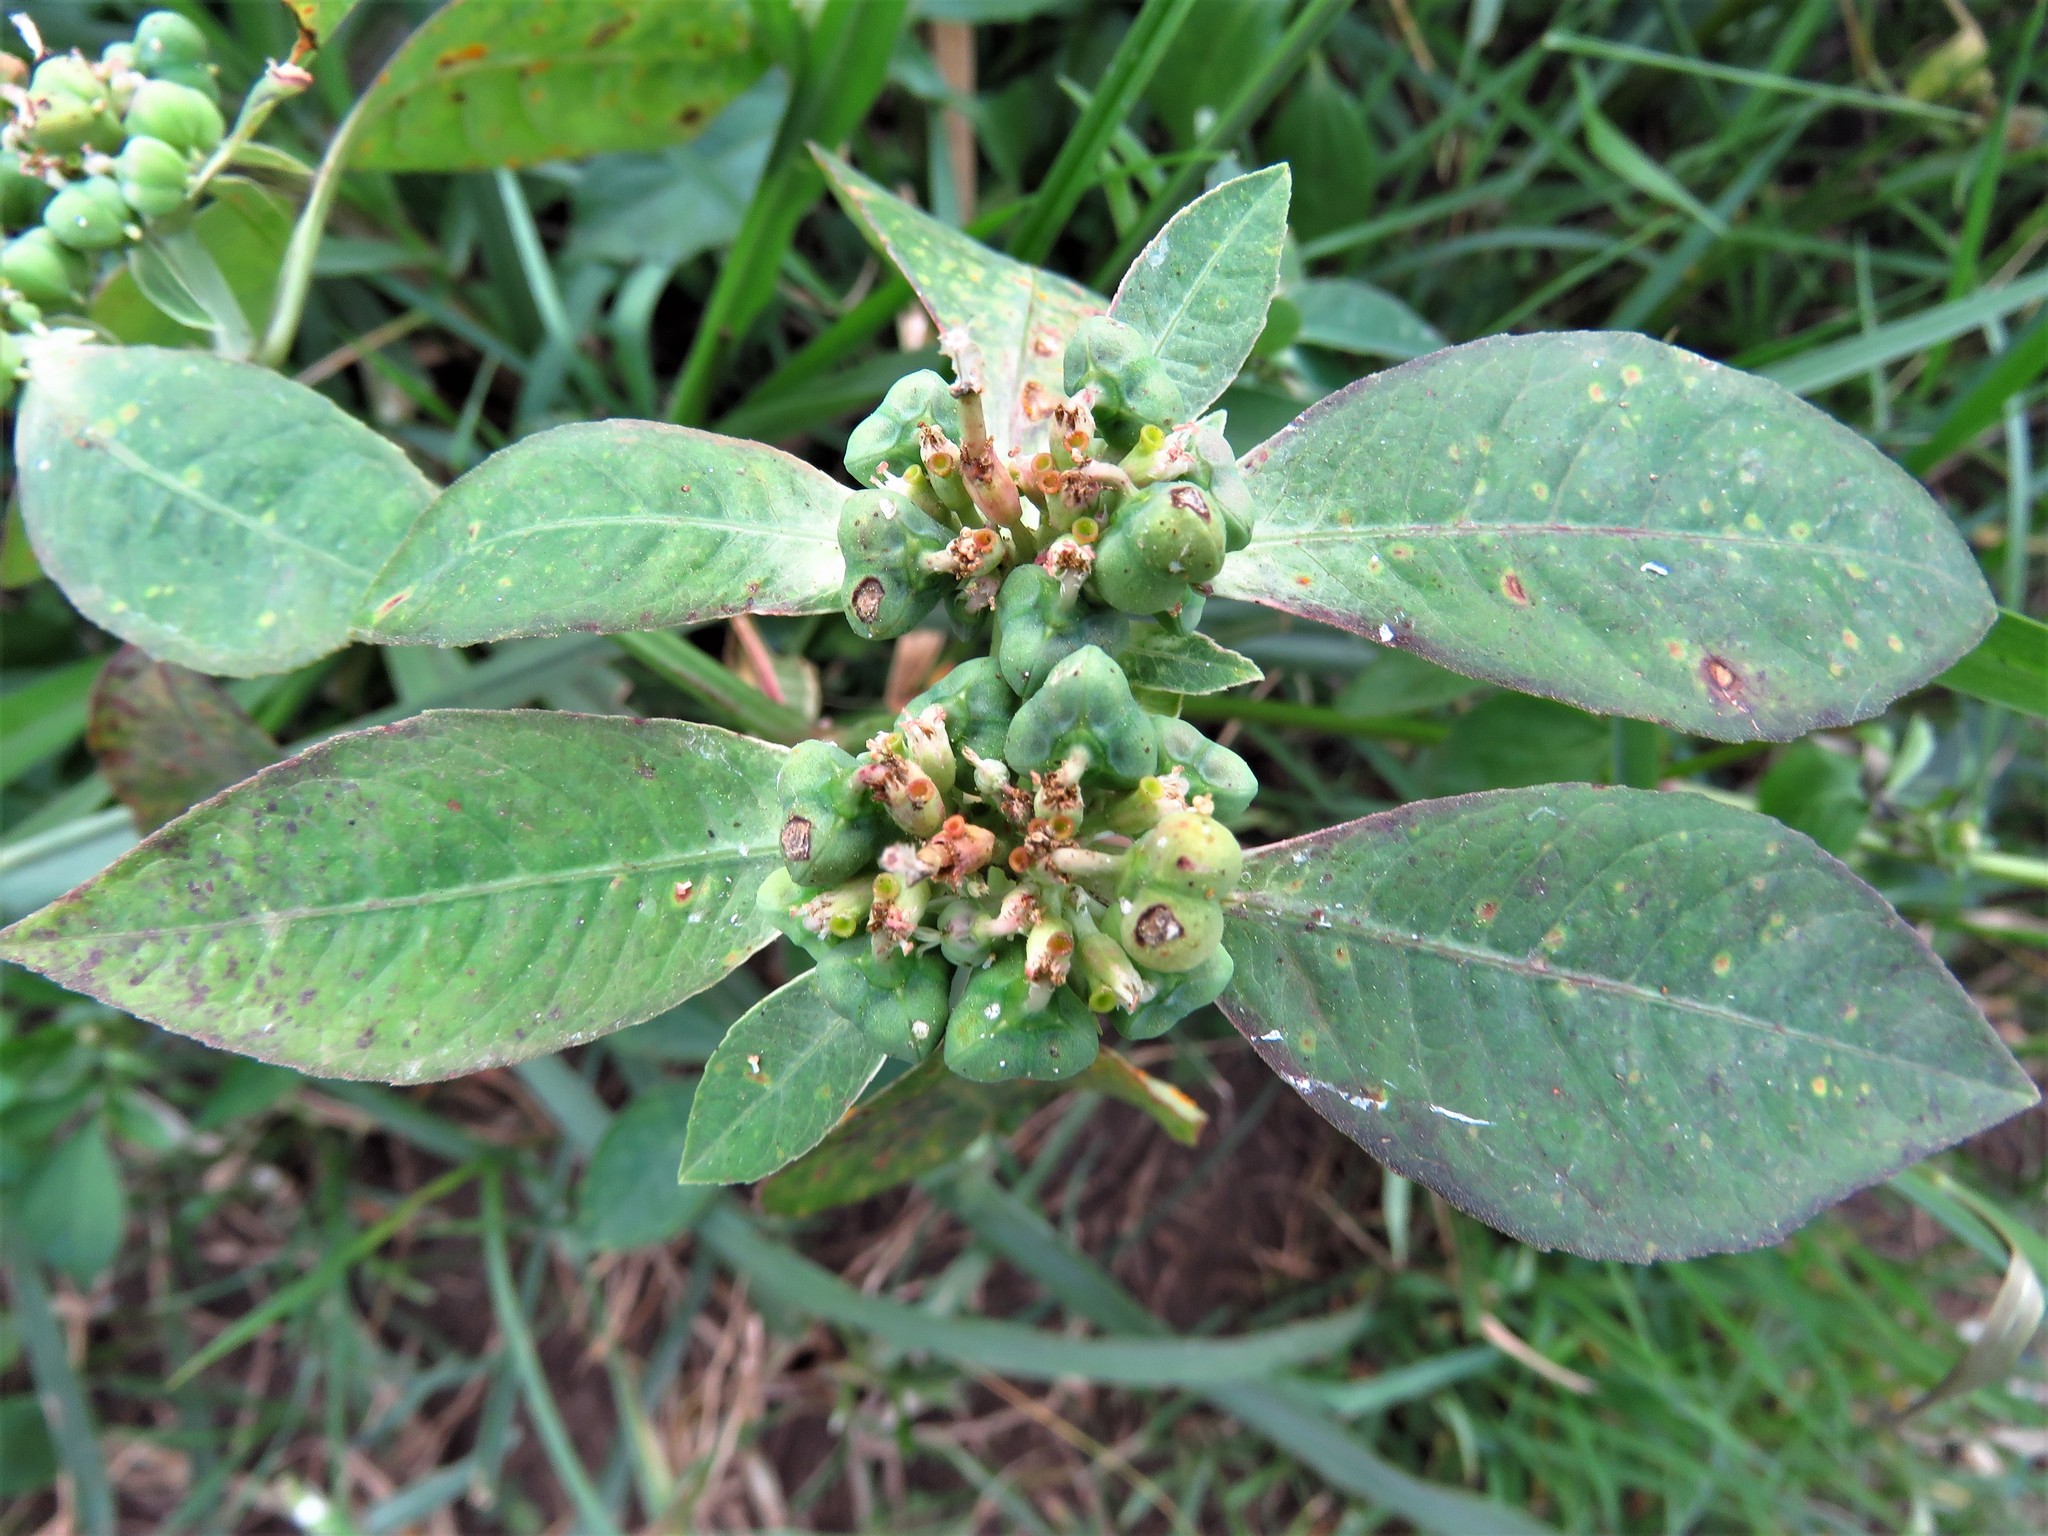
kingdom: Plantae
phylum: Tracheophyta
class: Magnoliopsida
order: Malpighiales
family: Euphorbiaceae
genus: Euphorbia
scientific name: Euphorbia heterophylla
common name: Mexican fireplant
